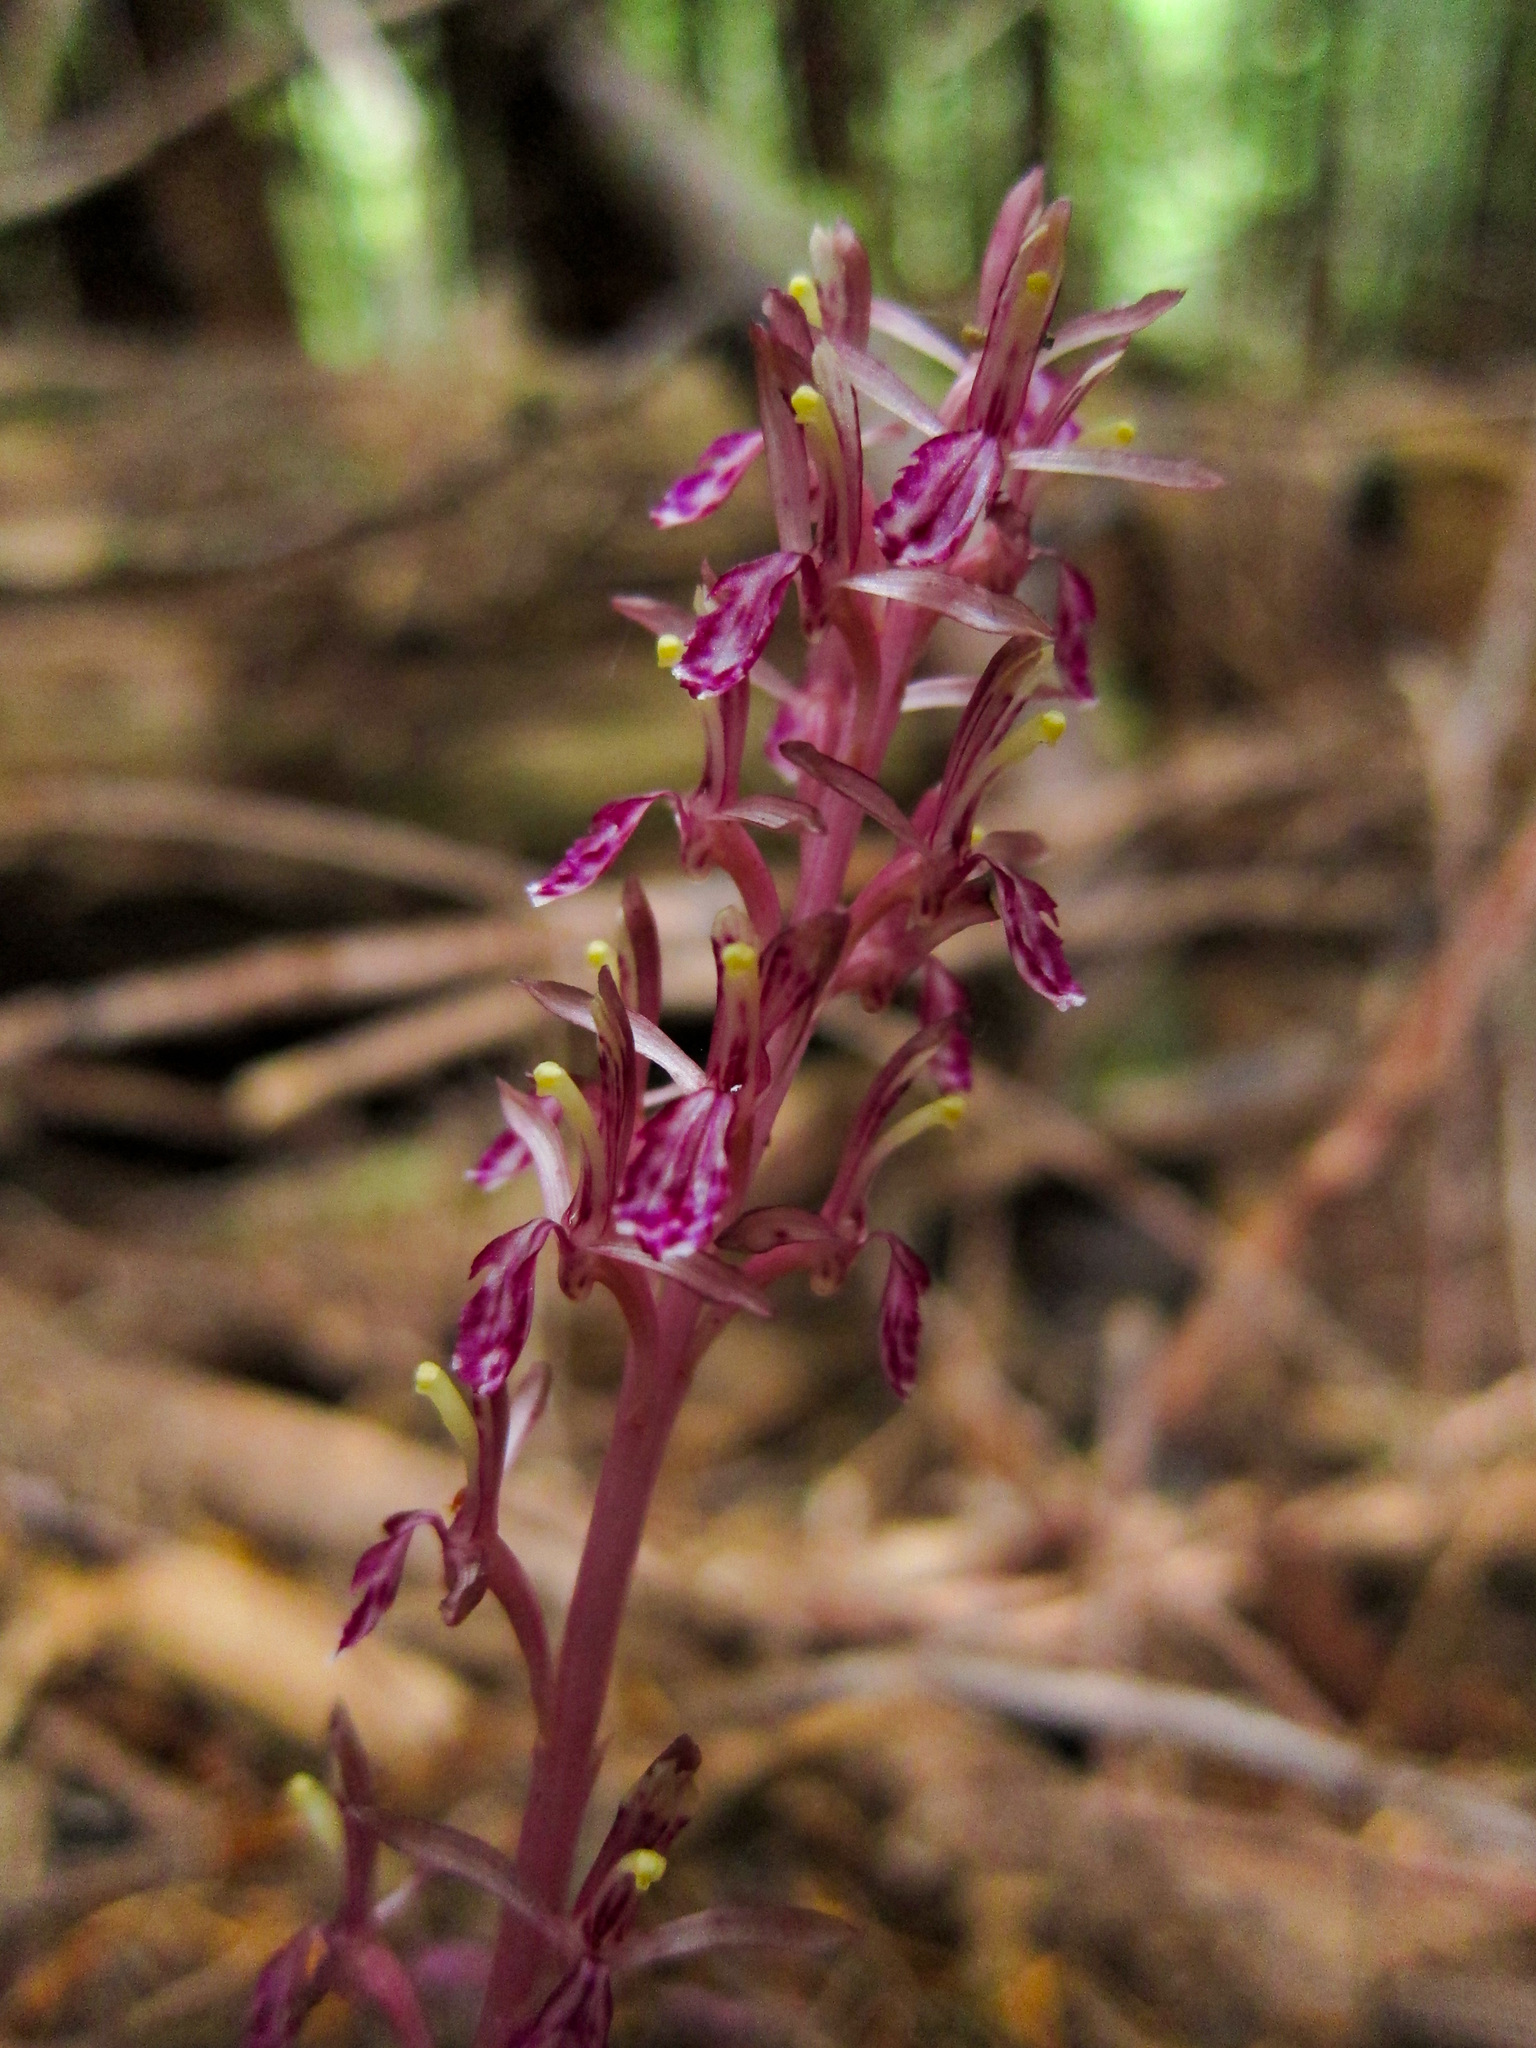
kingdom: Plantae
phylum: Tracheophyta
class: Liliopsida
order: Asparagales
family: Orchidaceae
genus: Corallorhiza
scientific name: Corallorhiza mertensiana
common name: Pacific coralroot
